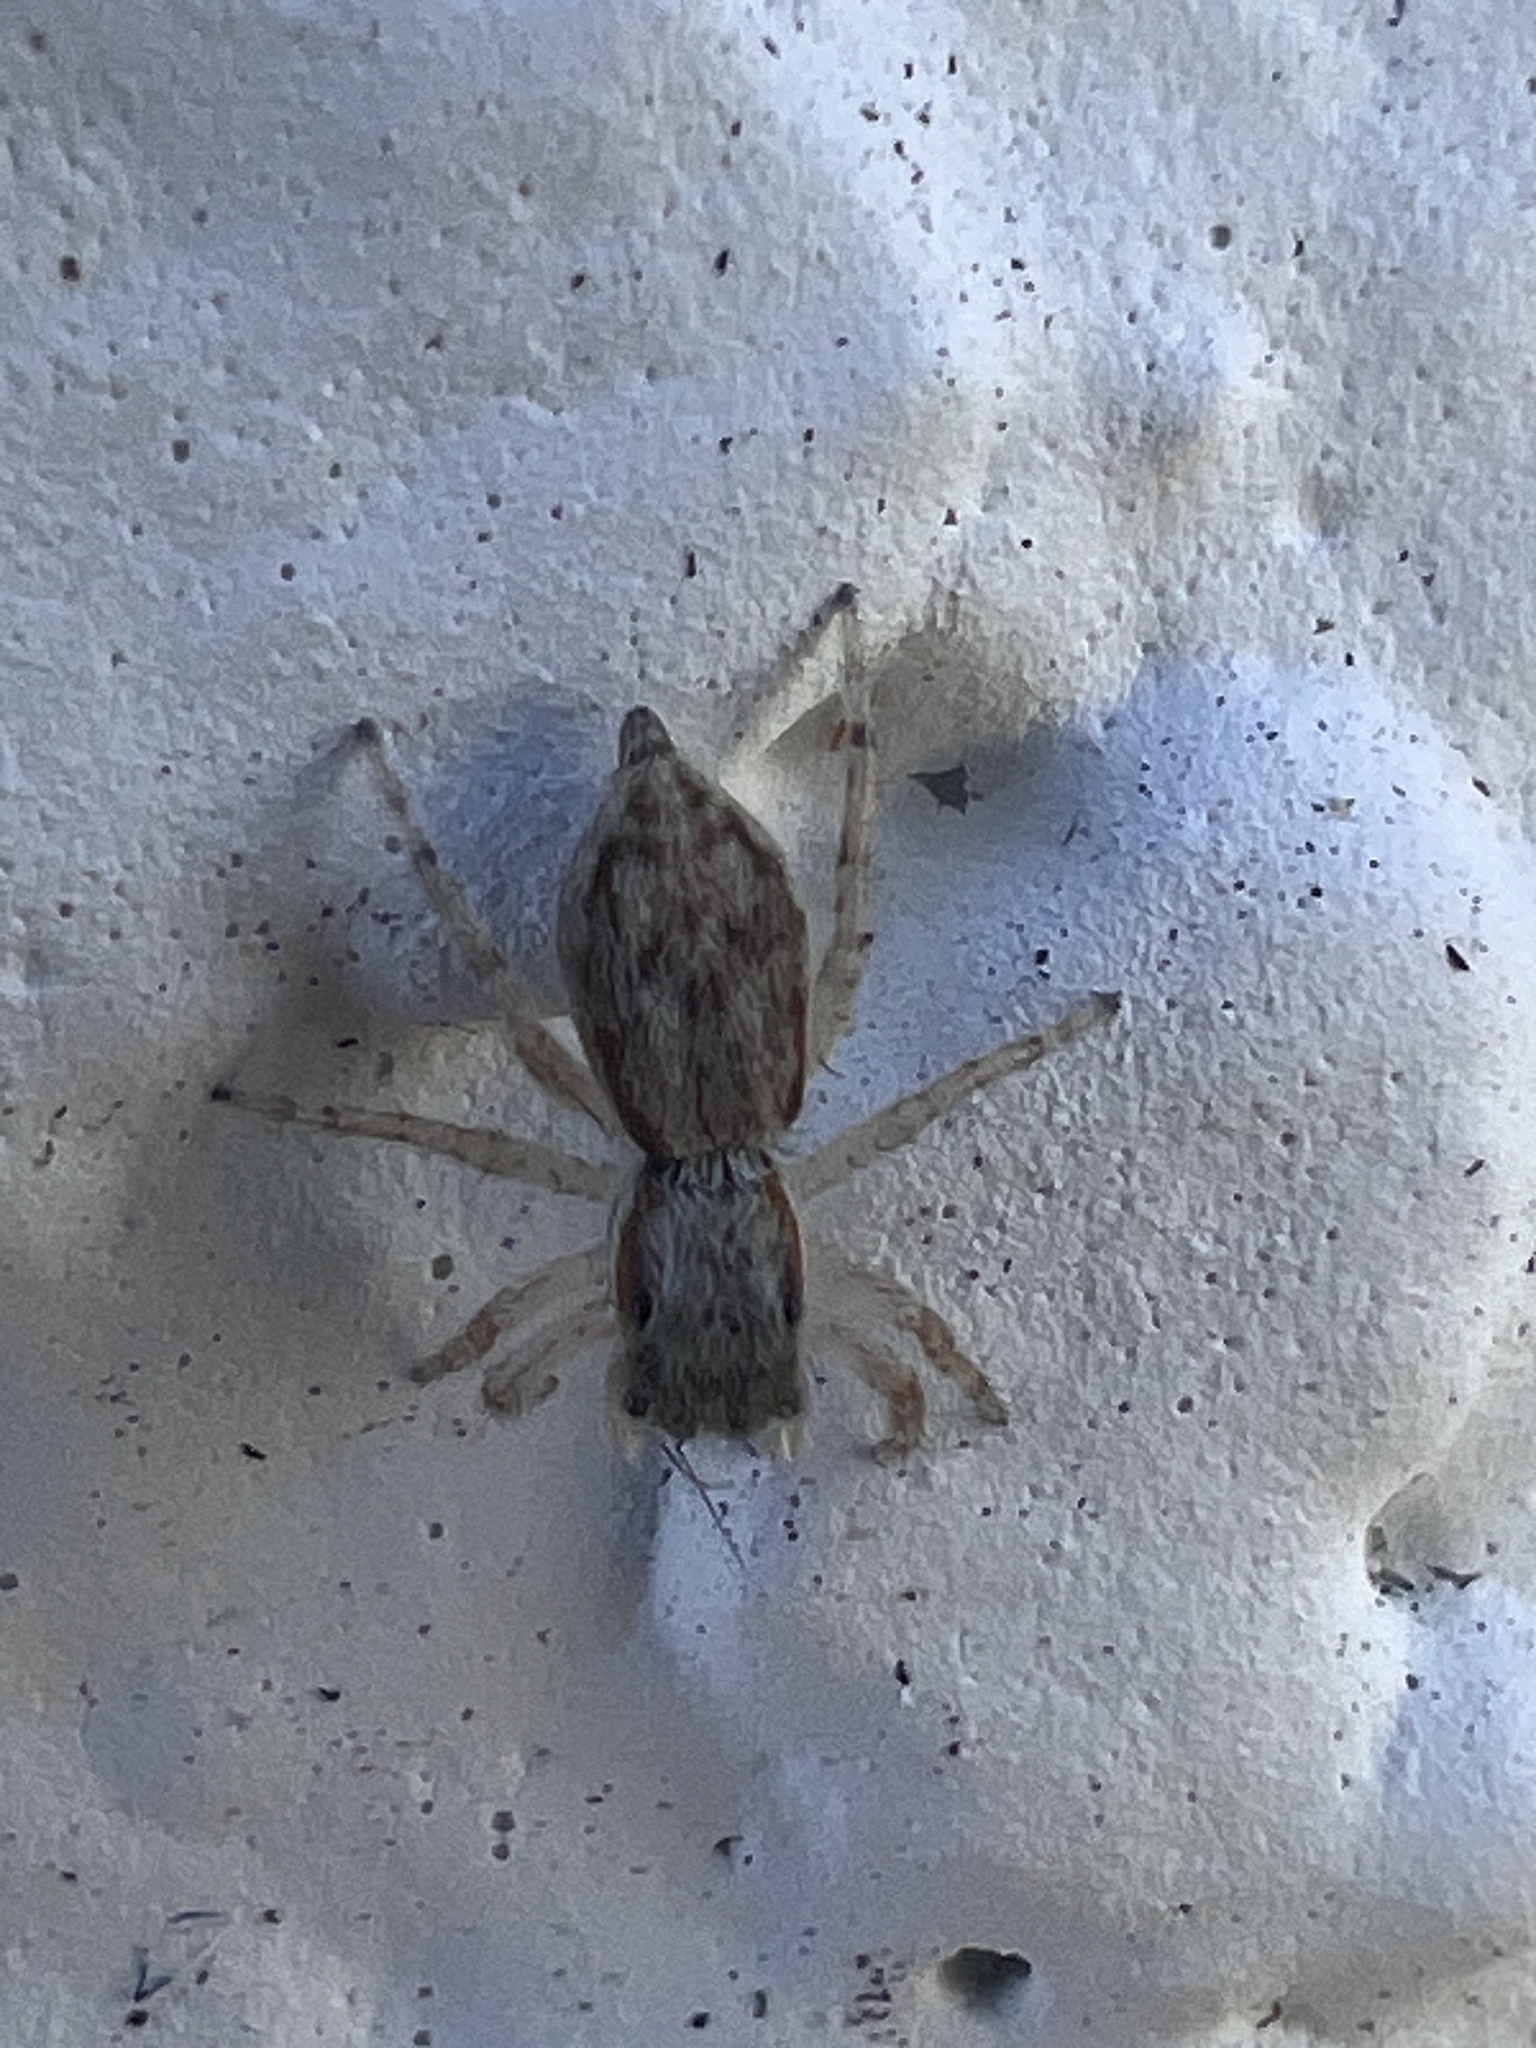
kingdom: Animalia
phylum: Arthropoda
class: Arachnida
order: Araneae
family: Salticidae
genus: Menemerus
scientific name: Menemerus bivittatus
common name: Gray wall jumper
